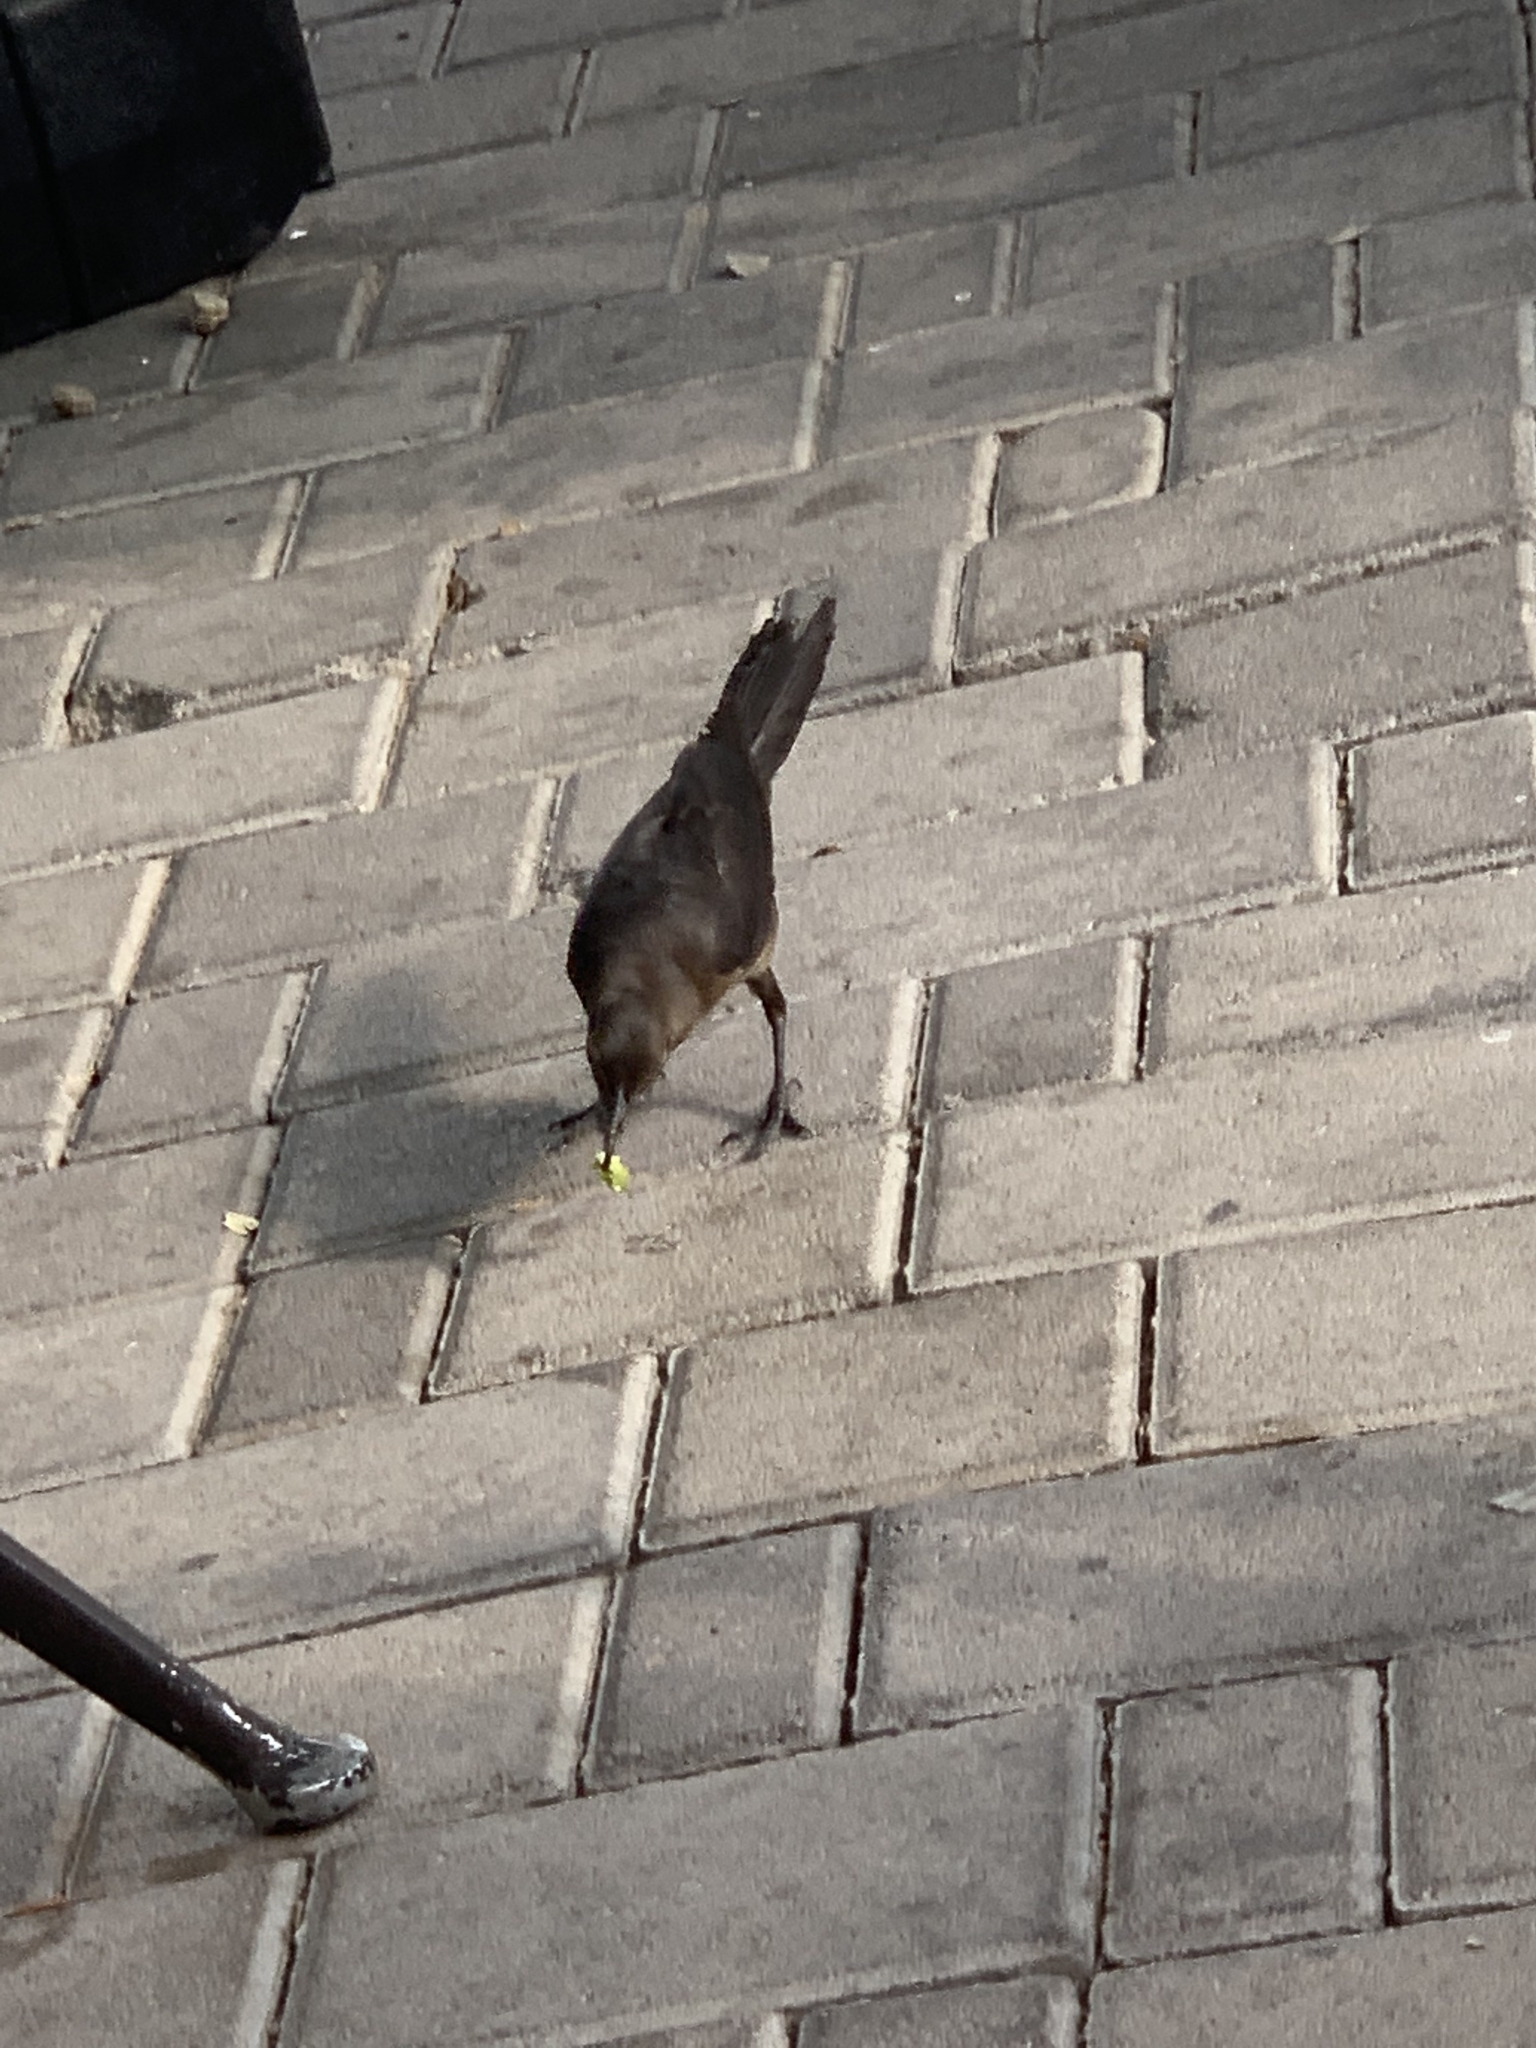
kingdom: Animalia
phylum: Chordata
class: Aves
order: Passeriformes
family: Icteridae
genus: Quiscalus
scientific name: Quiscalus mexicanus
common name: Great-tailed grackle
